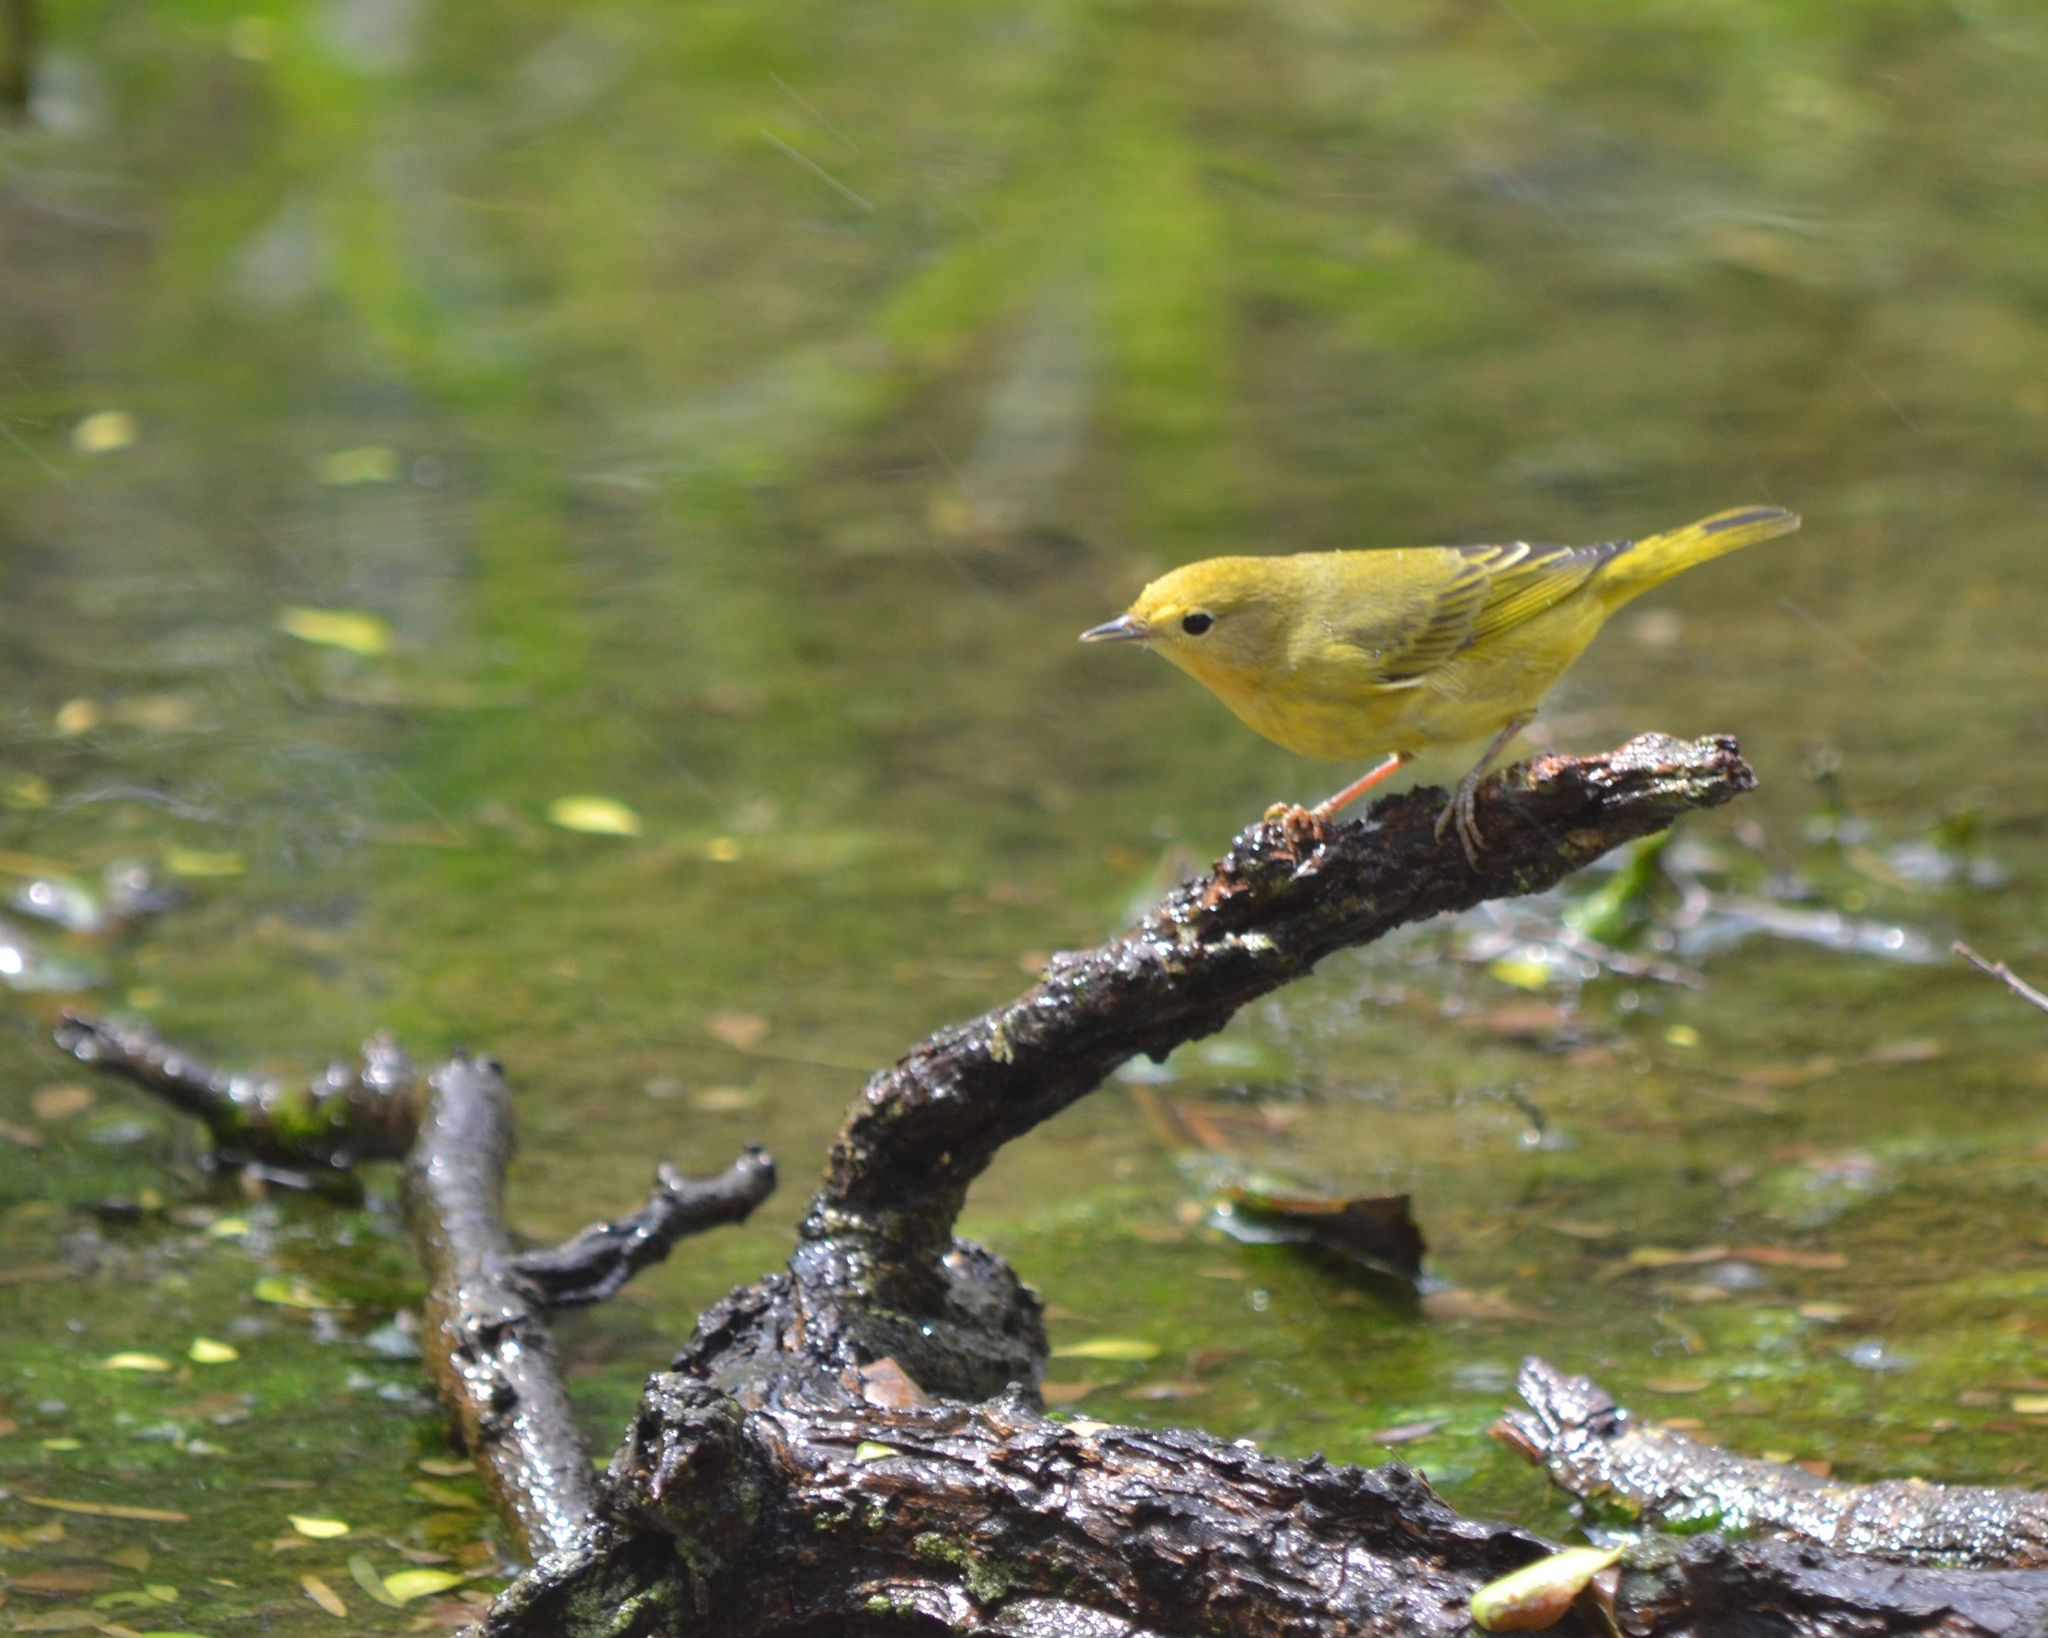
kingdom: Animalia
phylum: Chordata
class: Aves
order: Passeriformes
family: Parulidae
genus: Setophaga
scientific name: Setophaga petechia
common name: Yellow warbler
